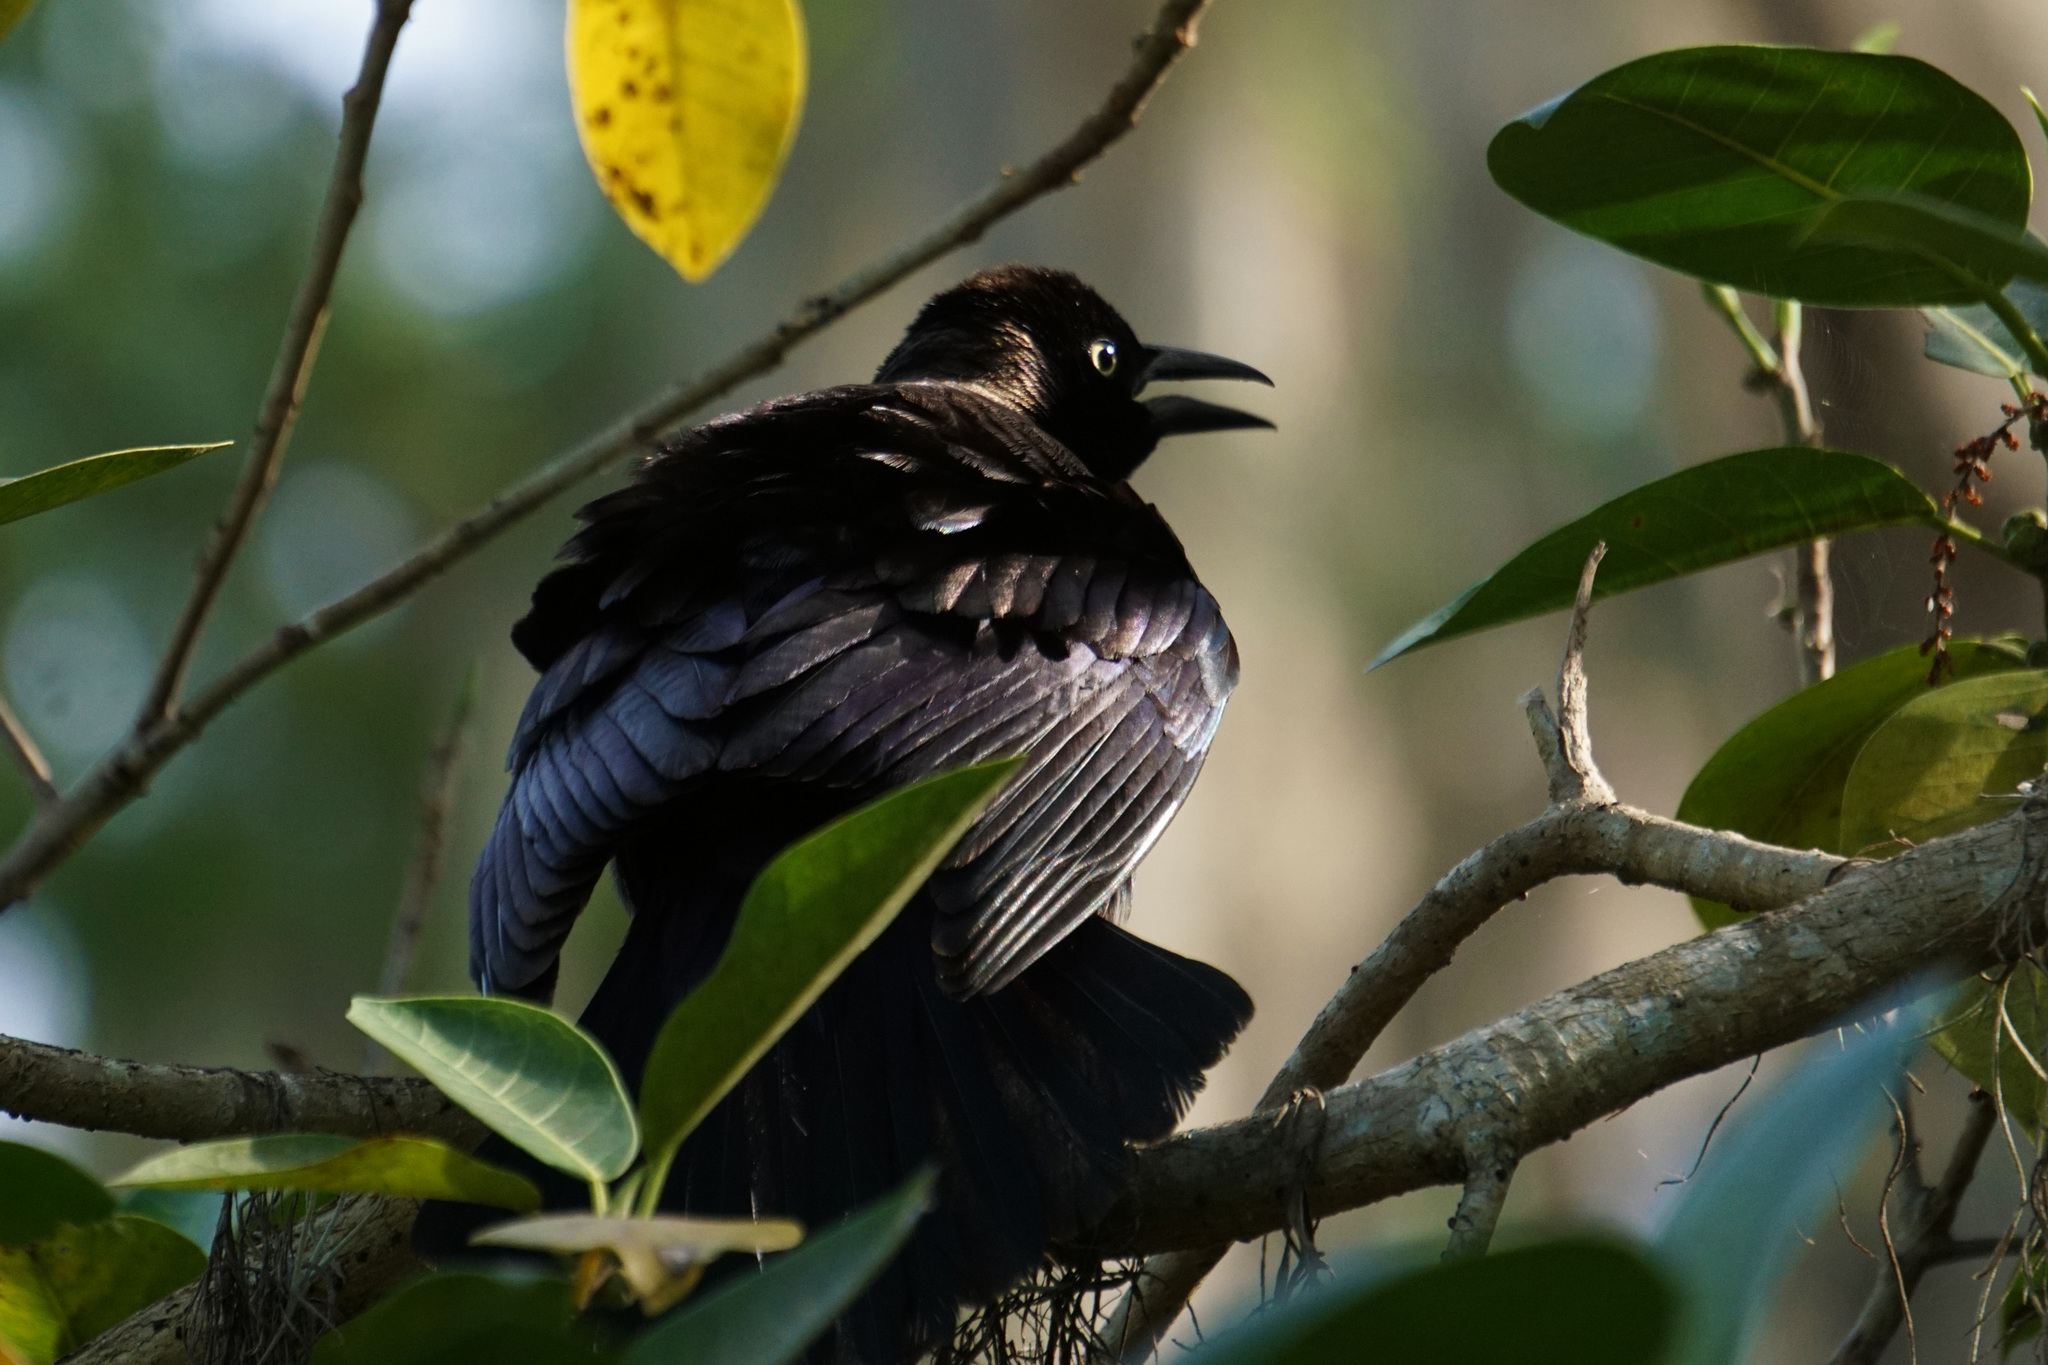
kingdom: Animalia
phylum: Chordata
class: Aves
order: Passeriformes
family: Icteridae
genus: Quiscalus
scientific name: Quiscalus quiscula
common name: Common grackle
